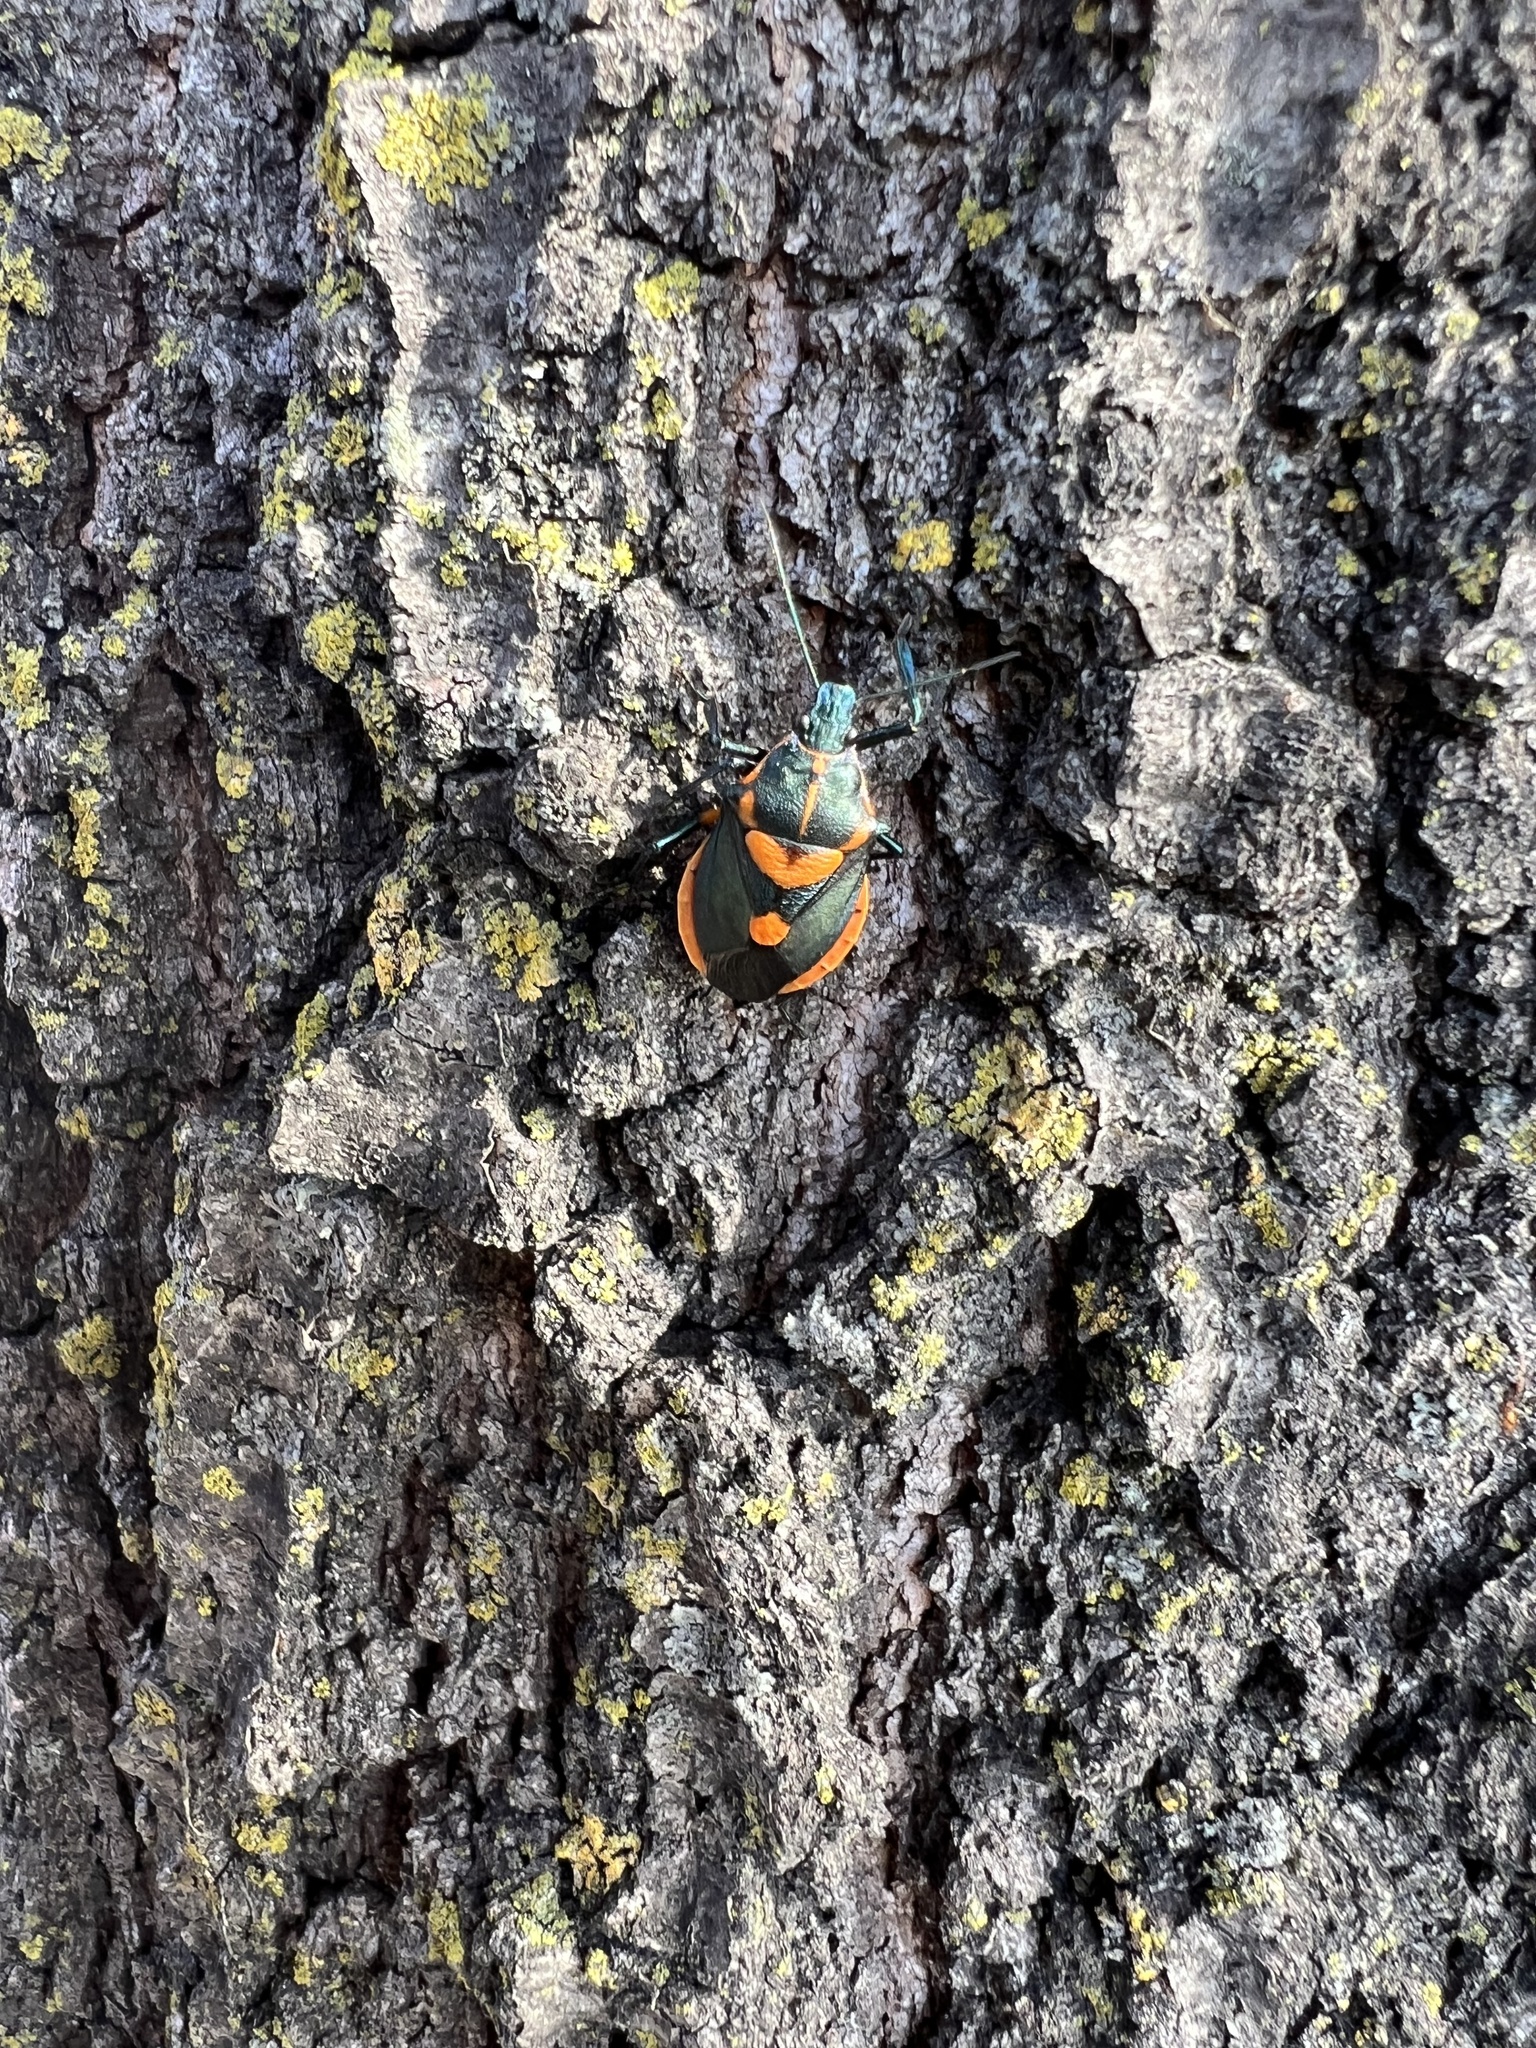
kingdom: Animalia
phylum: Arthropoda
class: Insecta
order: Hemiptera
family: Pentatomidae
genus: Euthyrhynchus
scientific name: Euthyrhynchus floridanus
